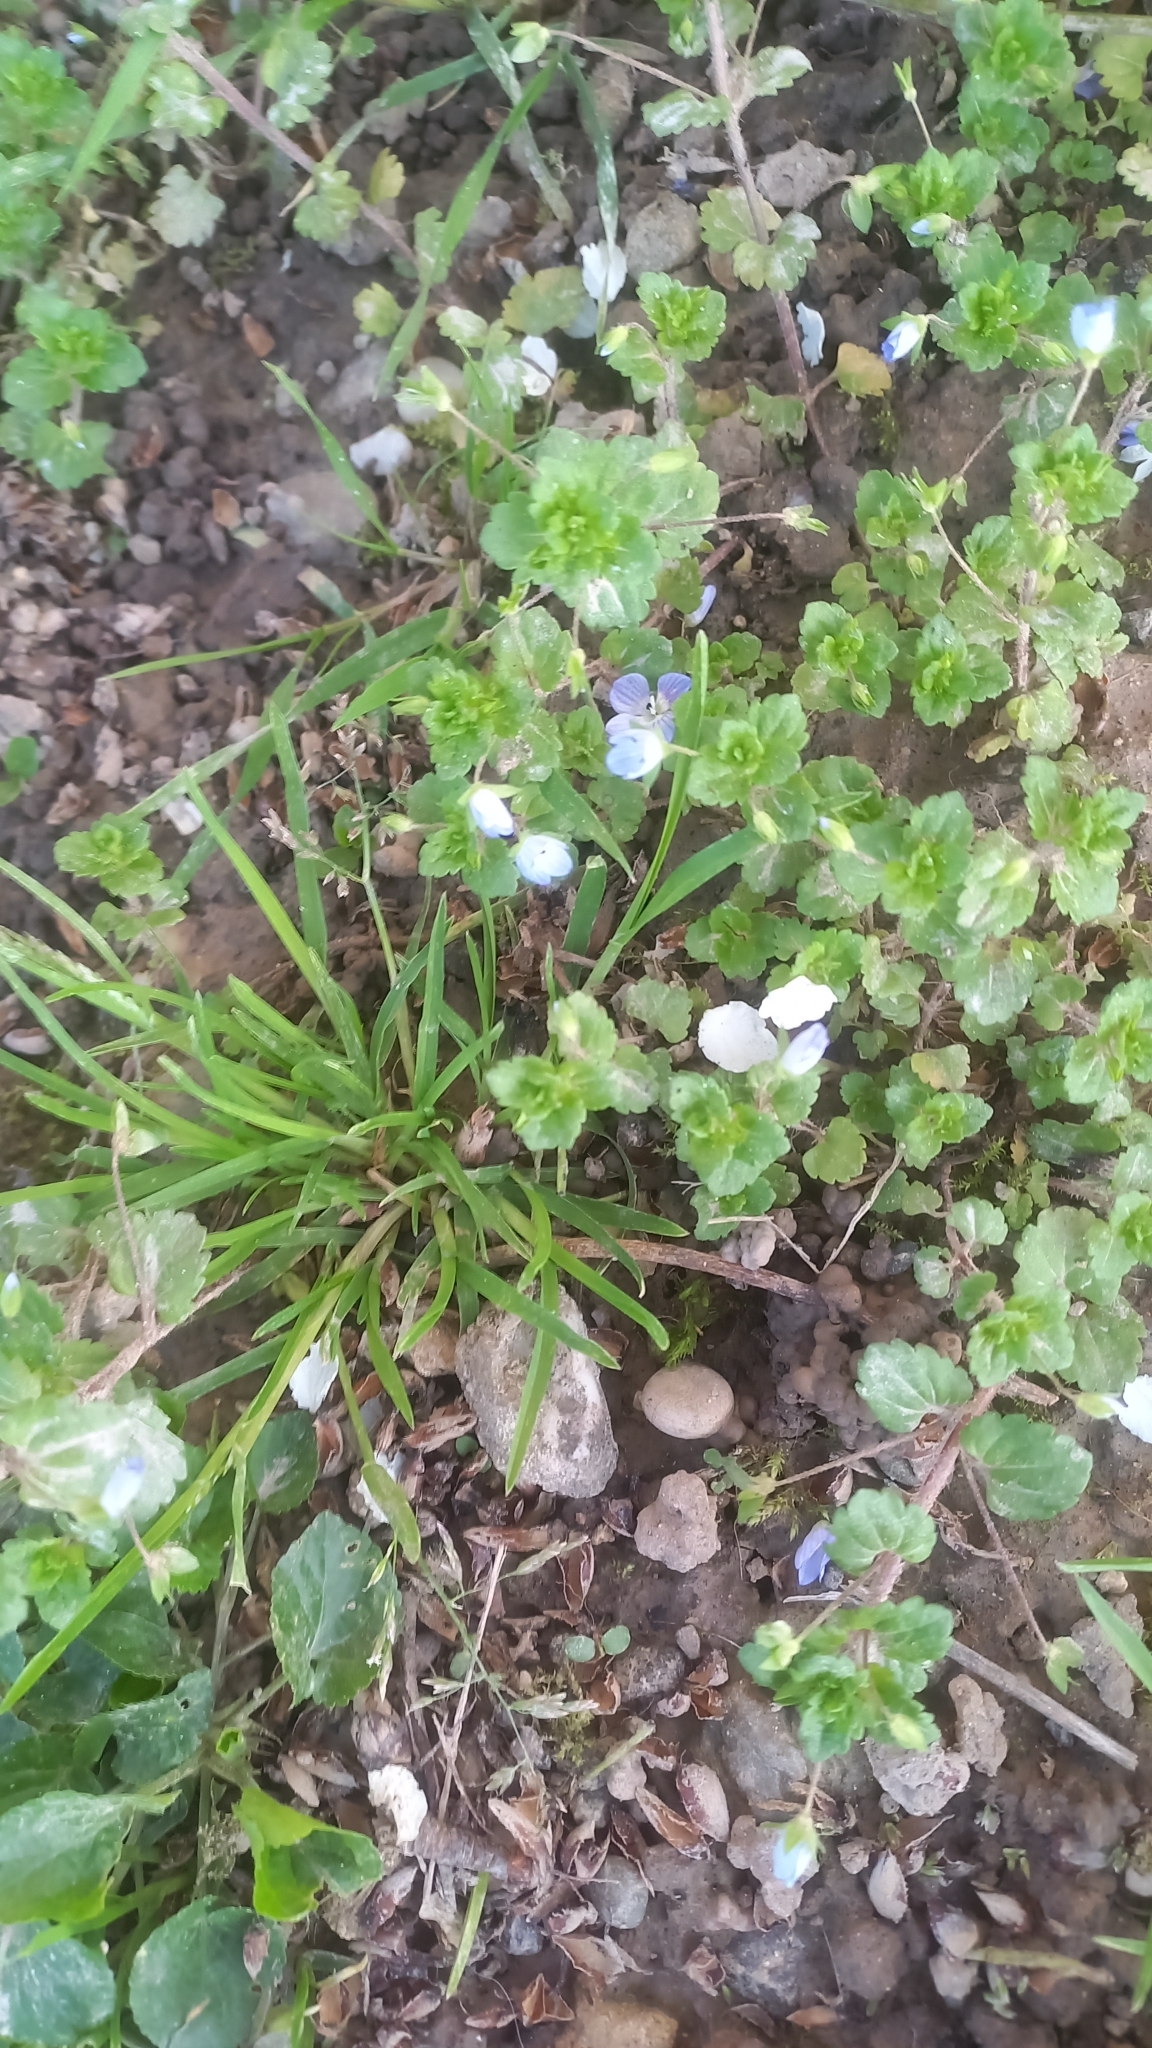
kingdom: Plantae
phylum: Tracheophyta
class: Magnoliopsida
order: Lamiales
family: Plantaginaceae
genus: Veronica
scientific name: Veronica persica
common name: Common field-speedwell
